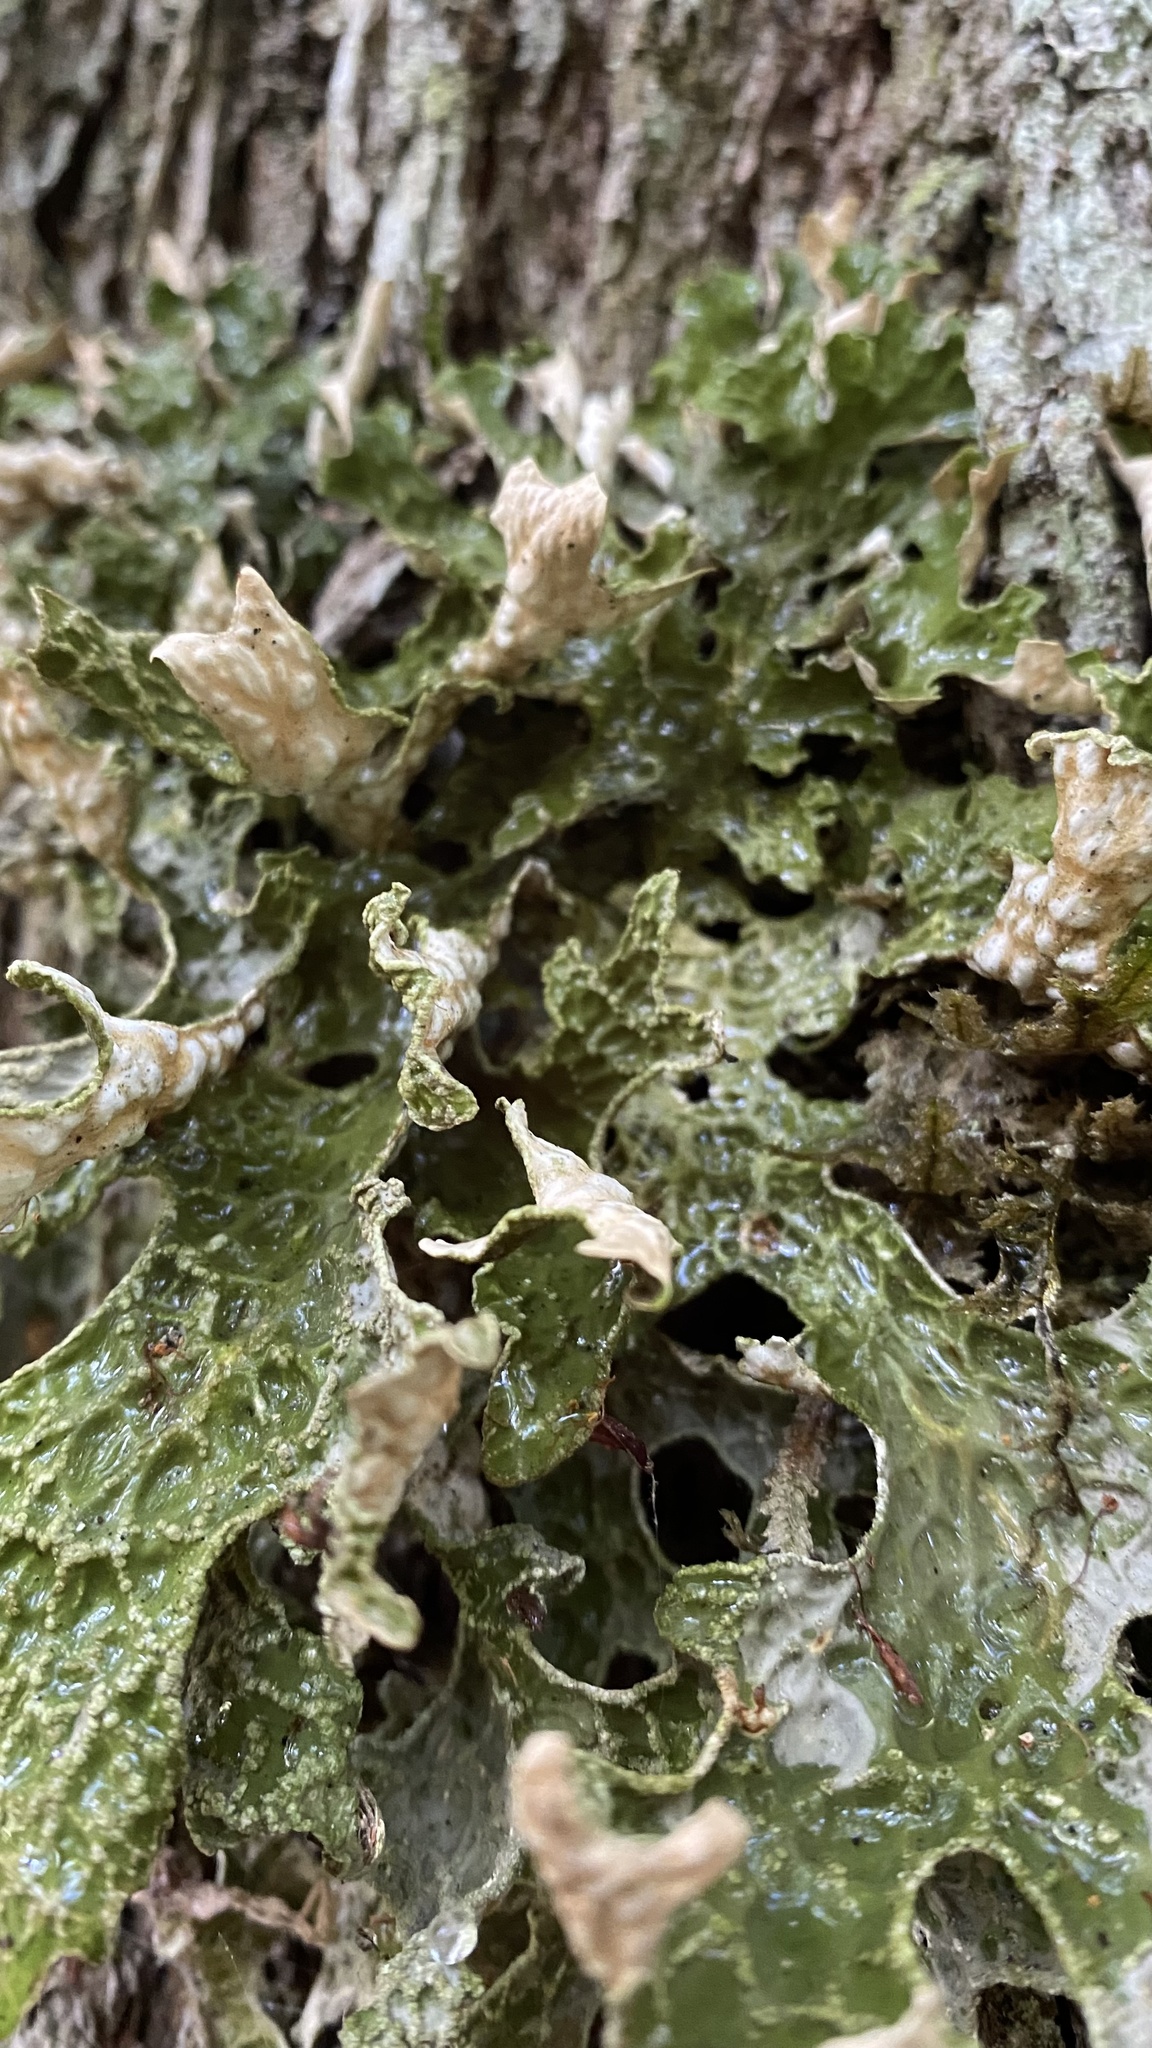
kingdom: Fungi
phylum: Ascomycota
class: Lecanoromycetes
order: Peltigerales
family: Lobariaceae
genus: Lobaria
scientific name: Lobaria pulmonaria
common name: Lungwort
